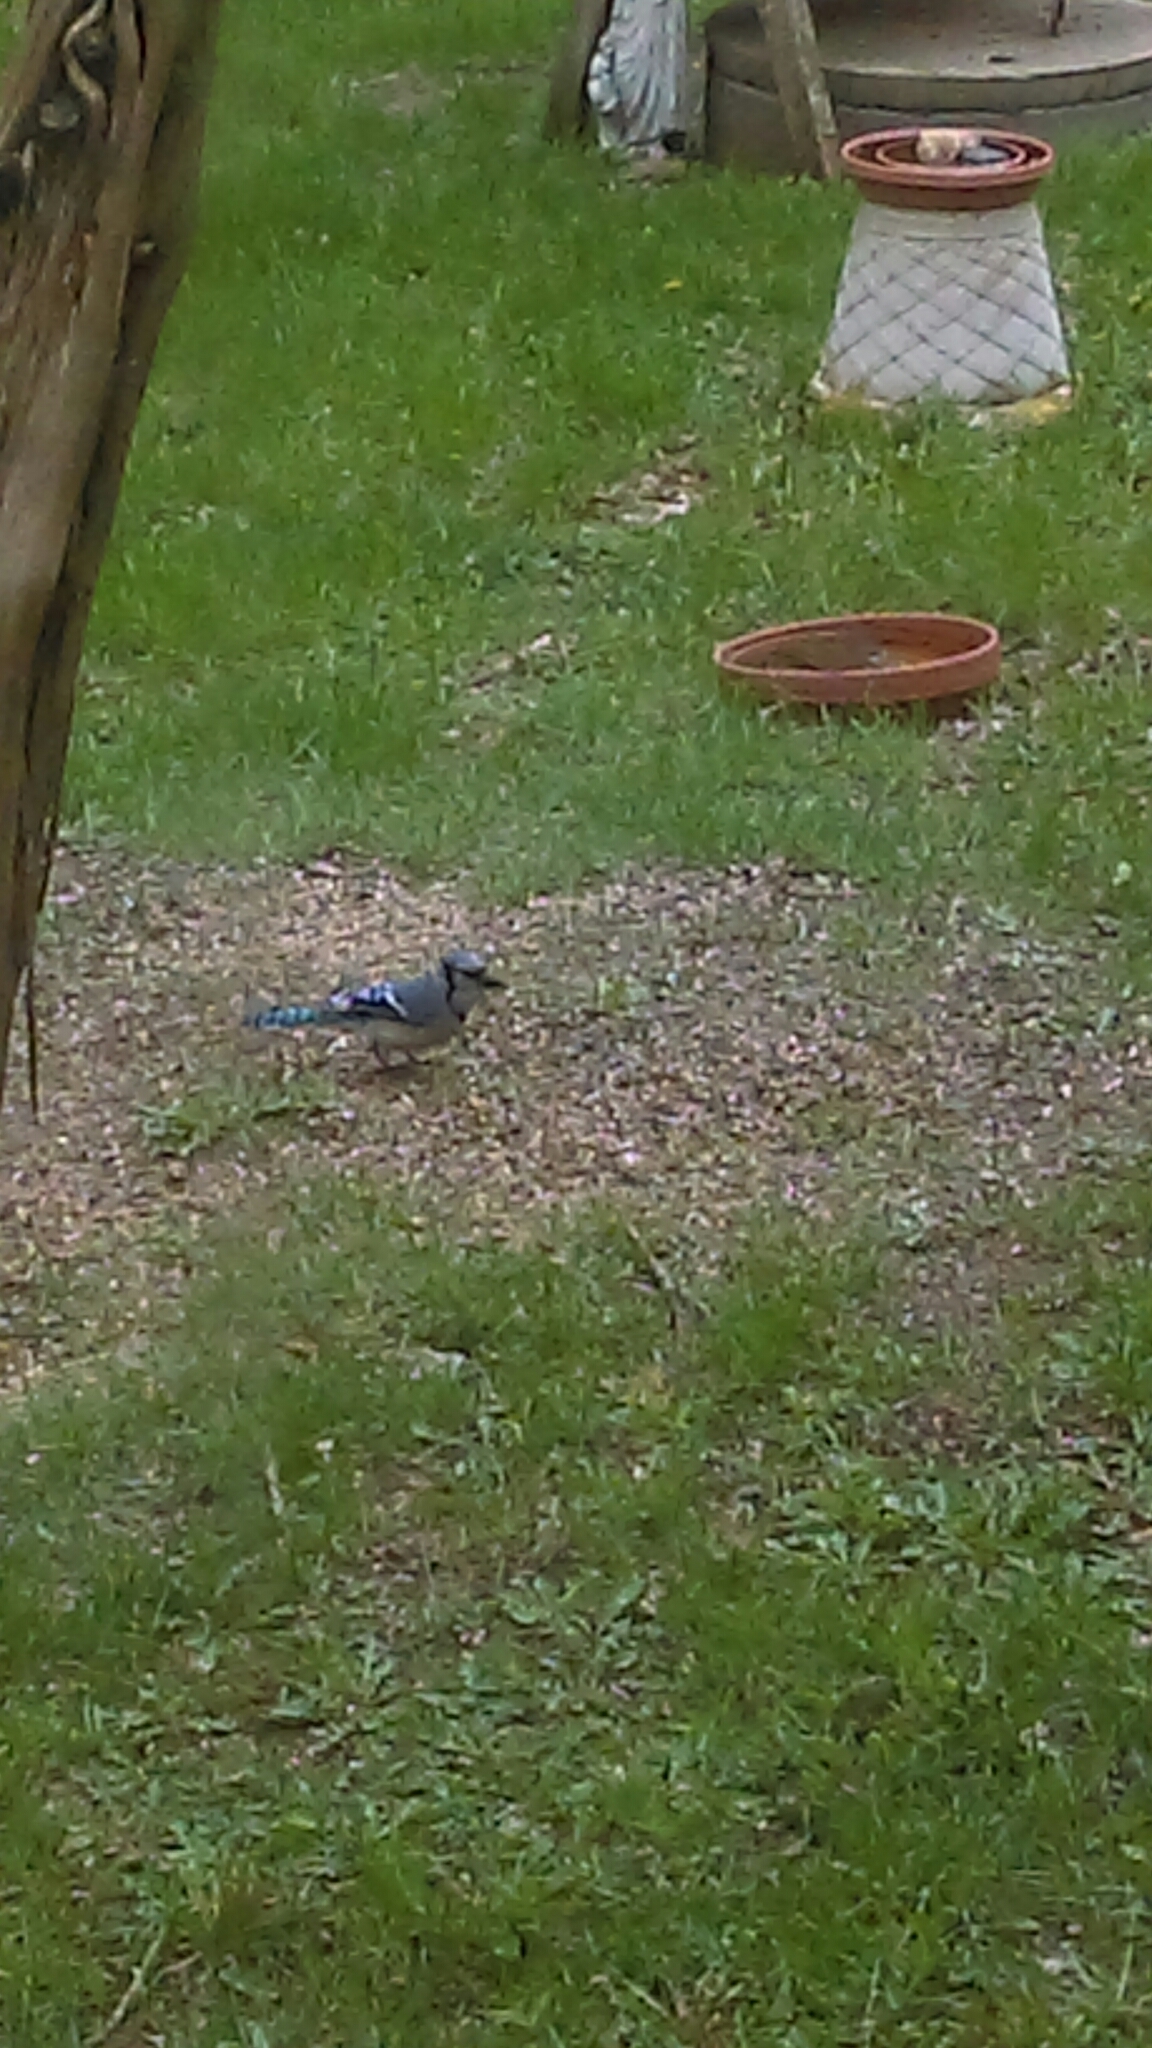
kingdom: Animalia
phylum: Chordata
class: Aves
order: Passeriformes
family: Corvidae
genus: Cyanocitta
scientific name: Cyanocitta cristata
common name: Blue jay
